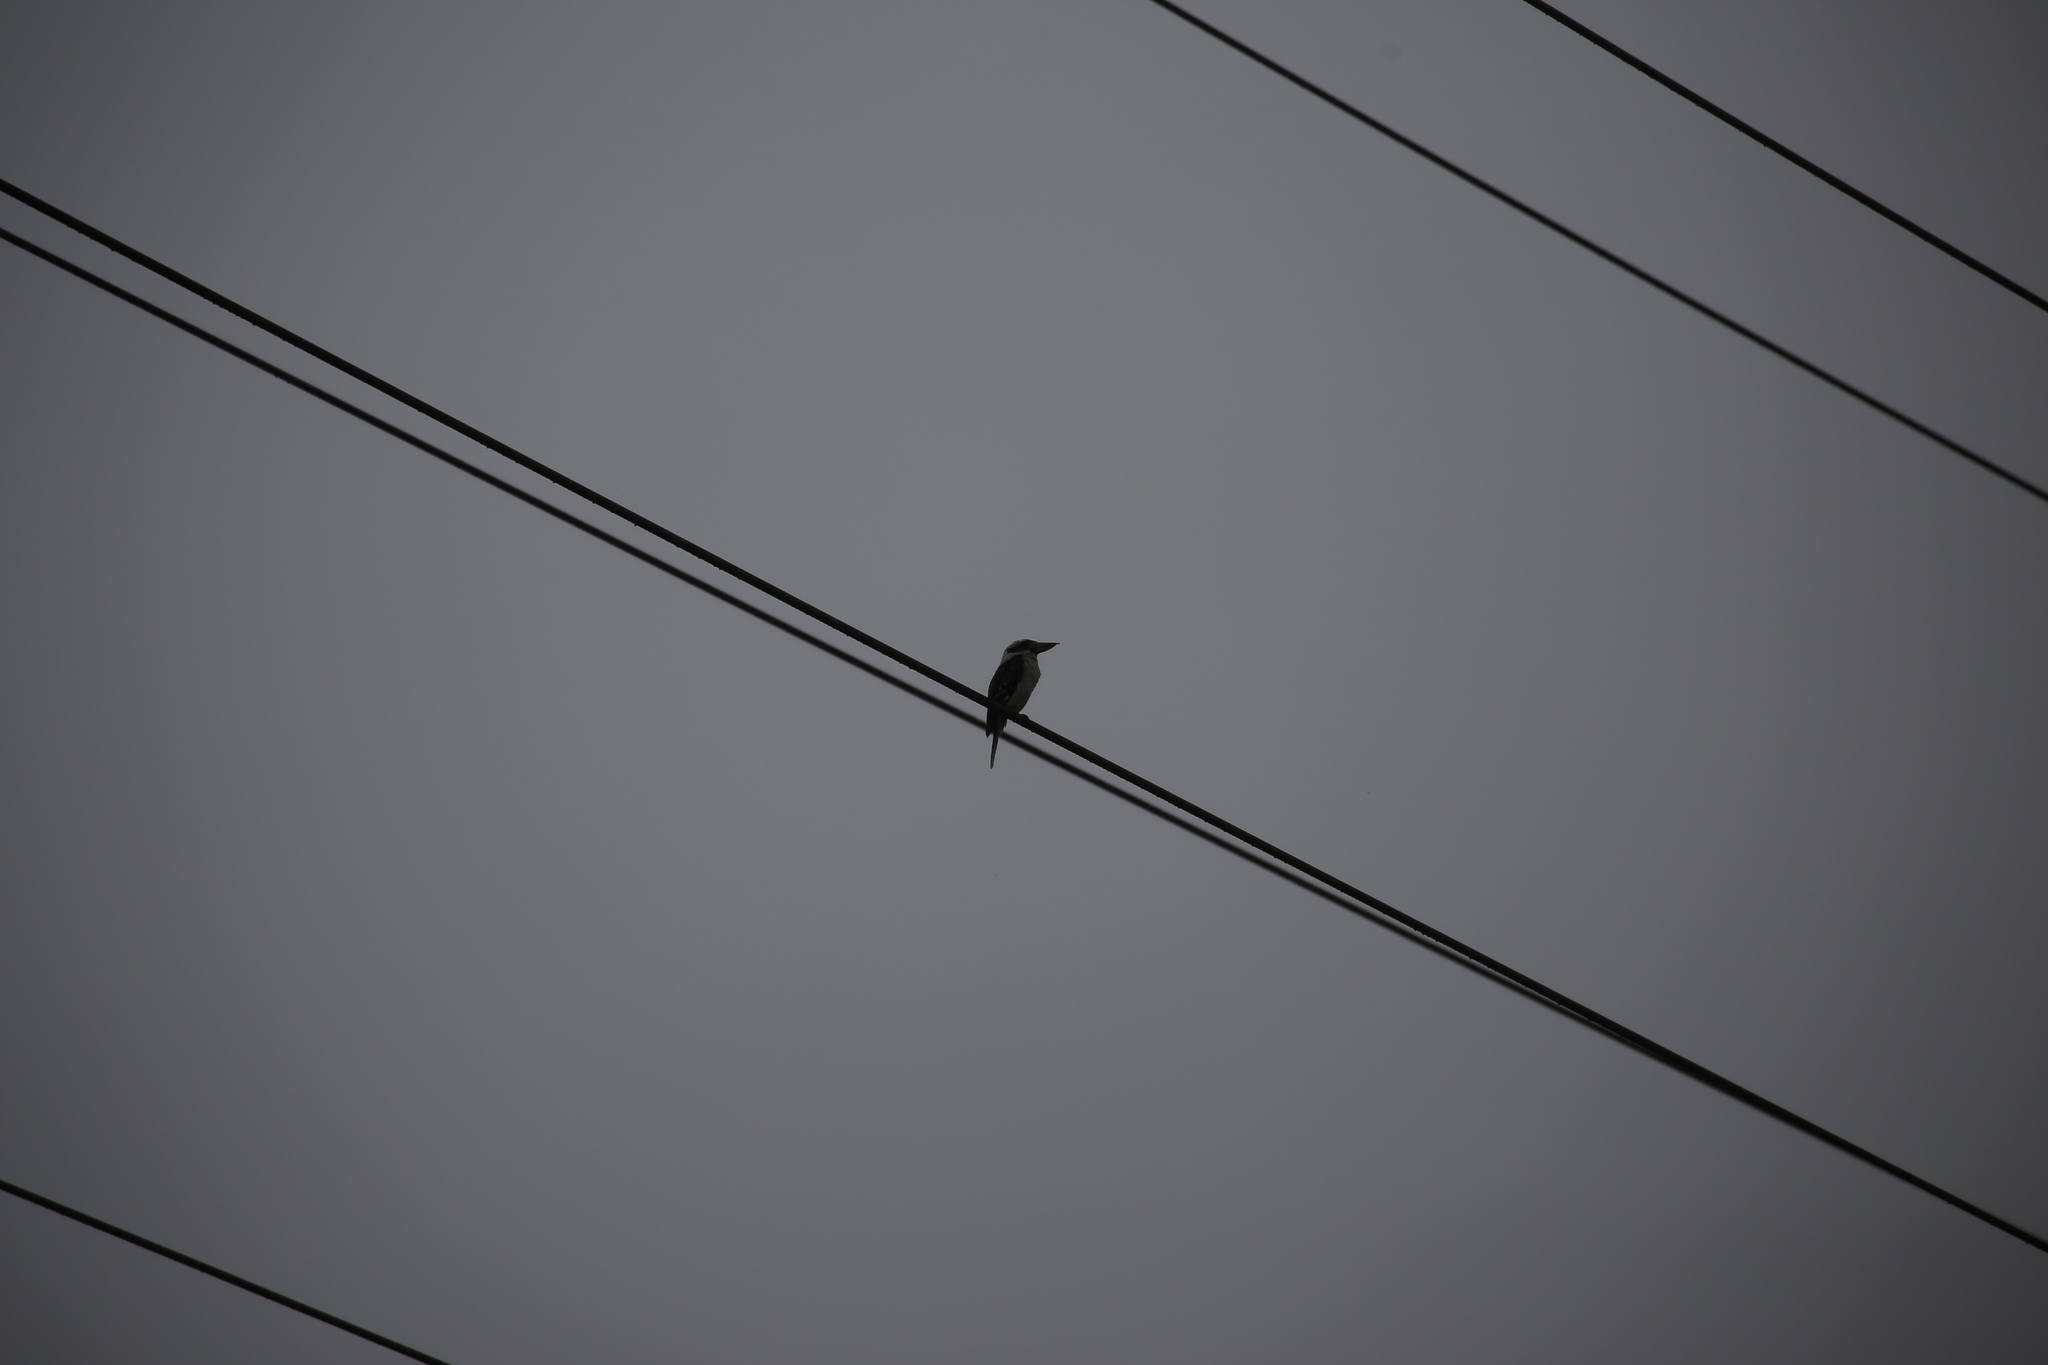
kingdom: Animalia
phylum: Chordata
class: Aves
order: Coraciiformes
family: Alcedinidae
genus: Dacelo
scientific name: Dacelo novaeguineae
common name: Laughing kookaburra
